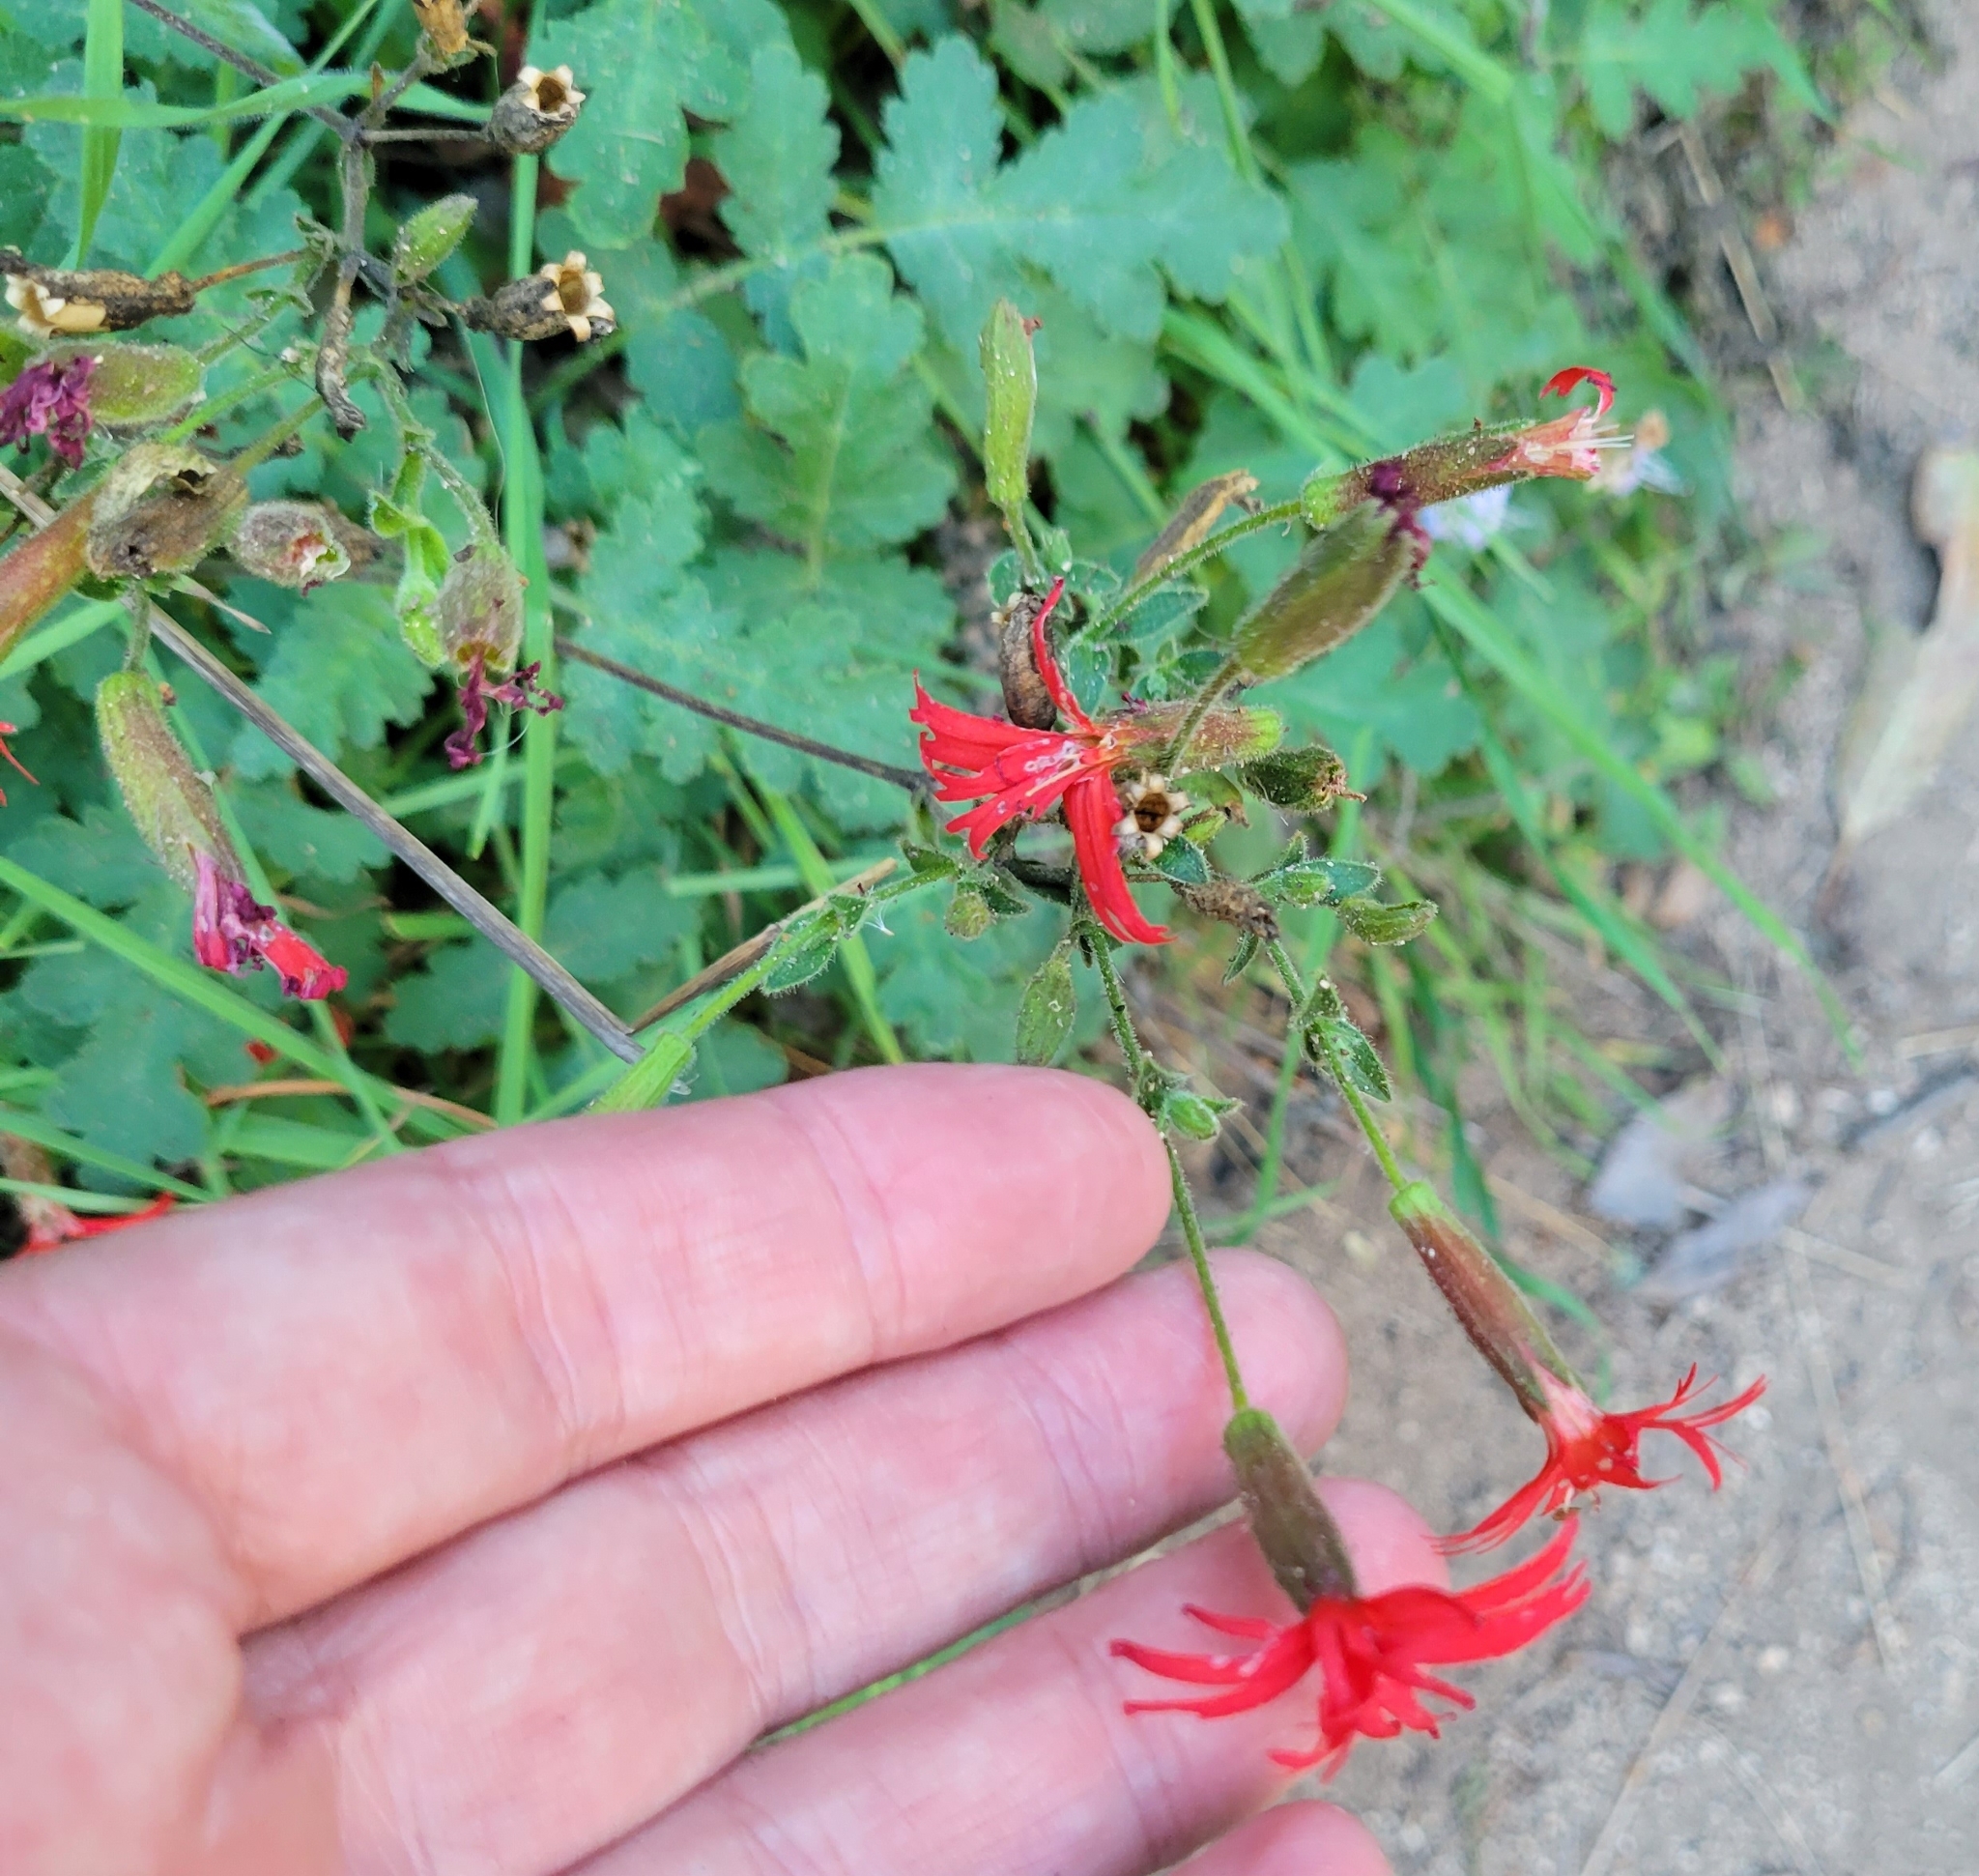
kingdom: Plantae
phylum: Tracheophyta
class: Magnoliopsida
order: Caryophyllales
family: Caryophyllaceae
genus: Silene
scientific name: Silene laciniata
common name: Indian-pink
